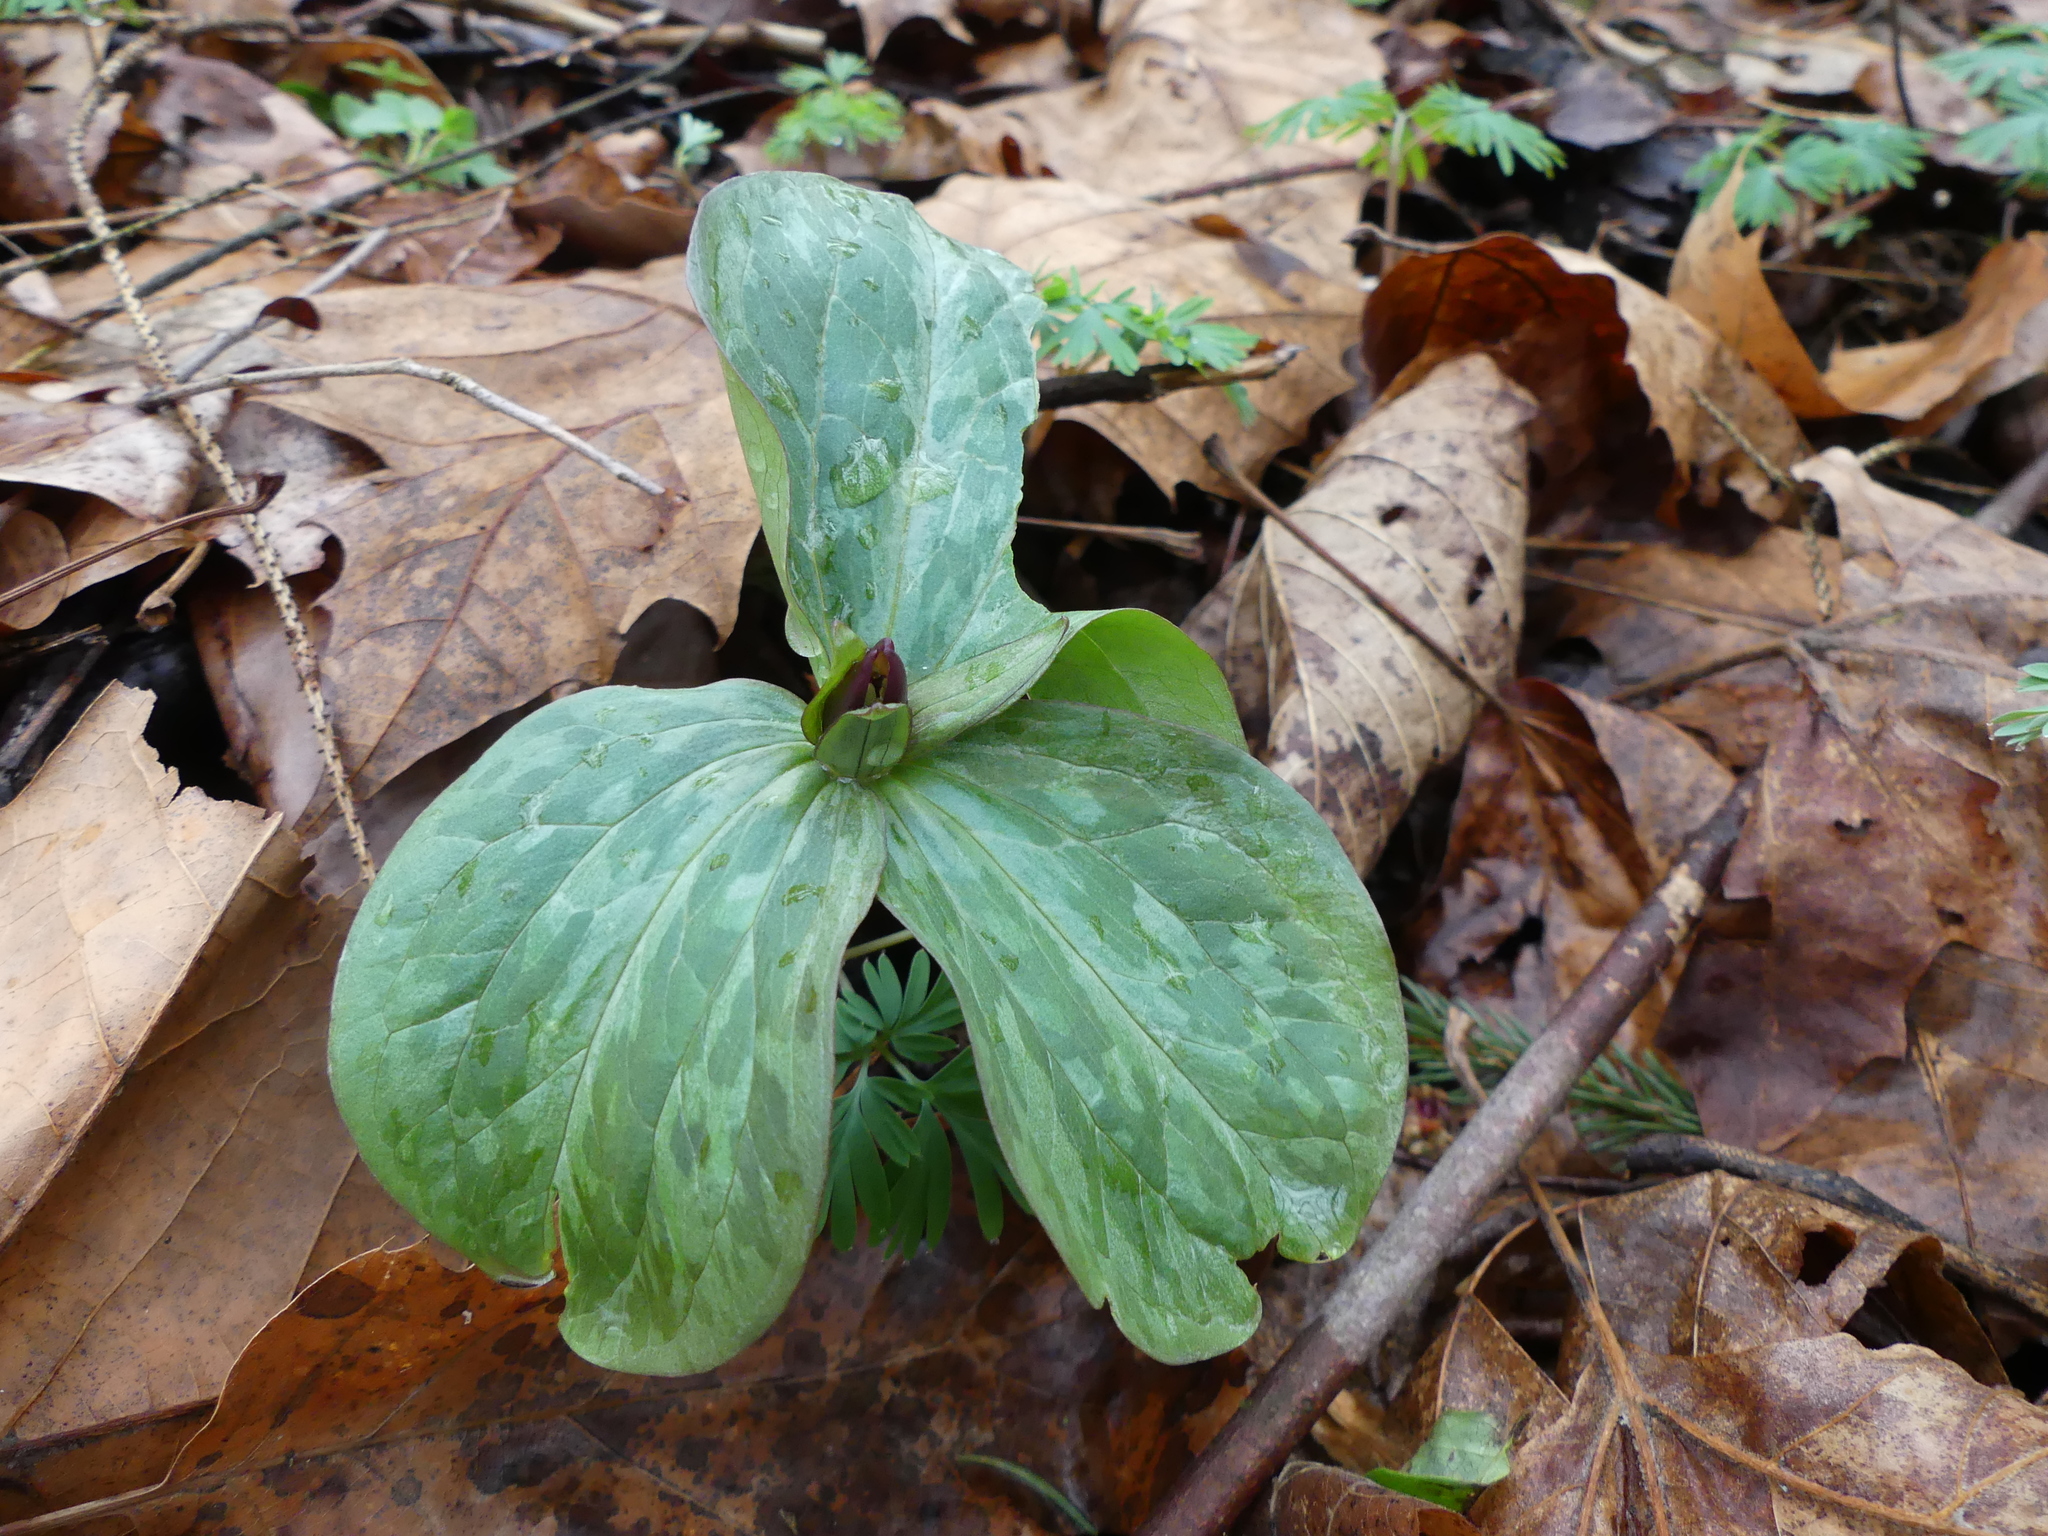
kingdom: Plantae
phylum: Tracheophyta
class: Liliopsida
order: Liliales
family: Melanthiaceae
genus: Trillium
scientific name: Trillium sessile
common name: Sessile trillium
